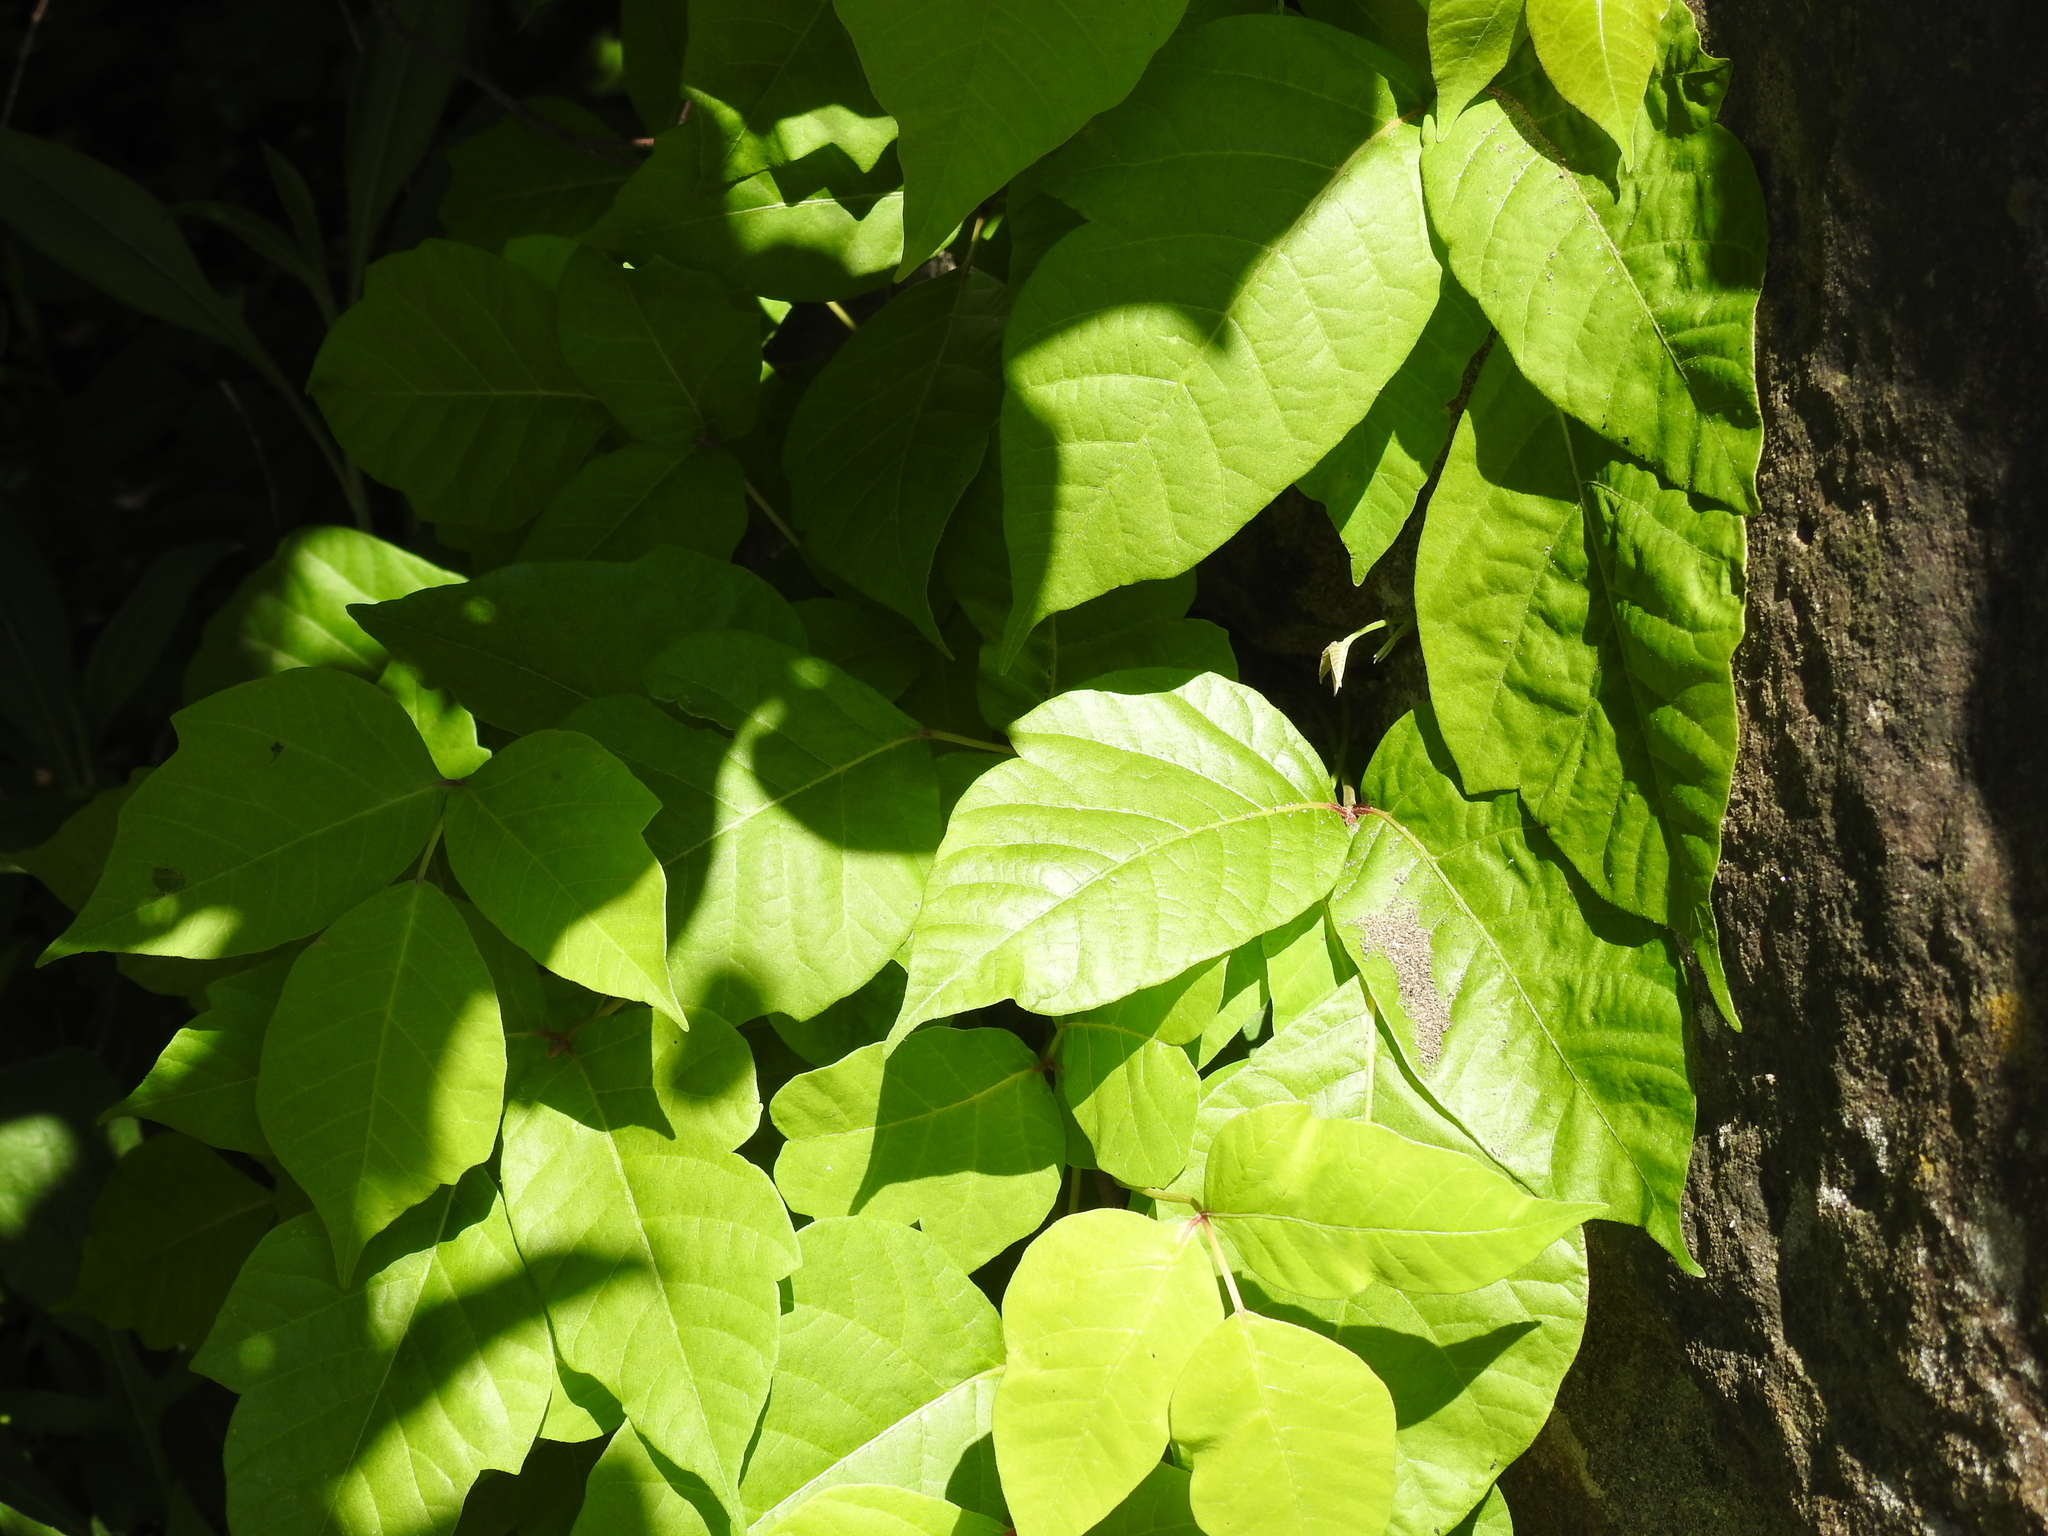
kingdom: Plantae
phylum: Tracheophyta
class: Magnoliopsida
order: Sapindales
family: Anacardiaceae
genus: Toxicodendron
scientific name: Toxicodendron radicans
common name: Poison ivy
